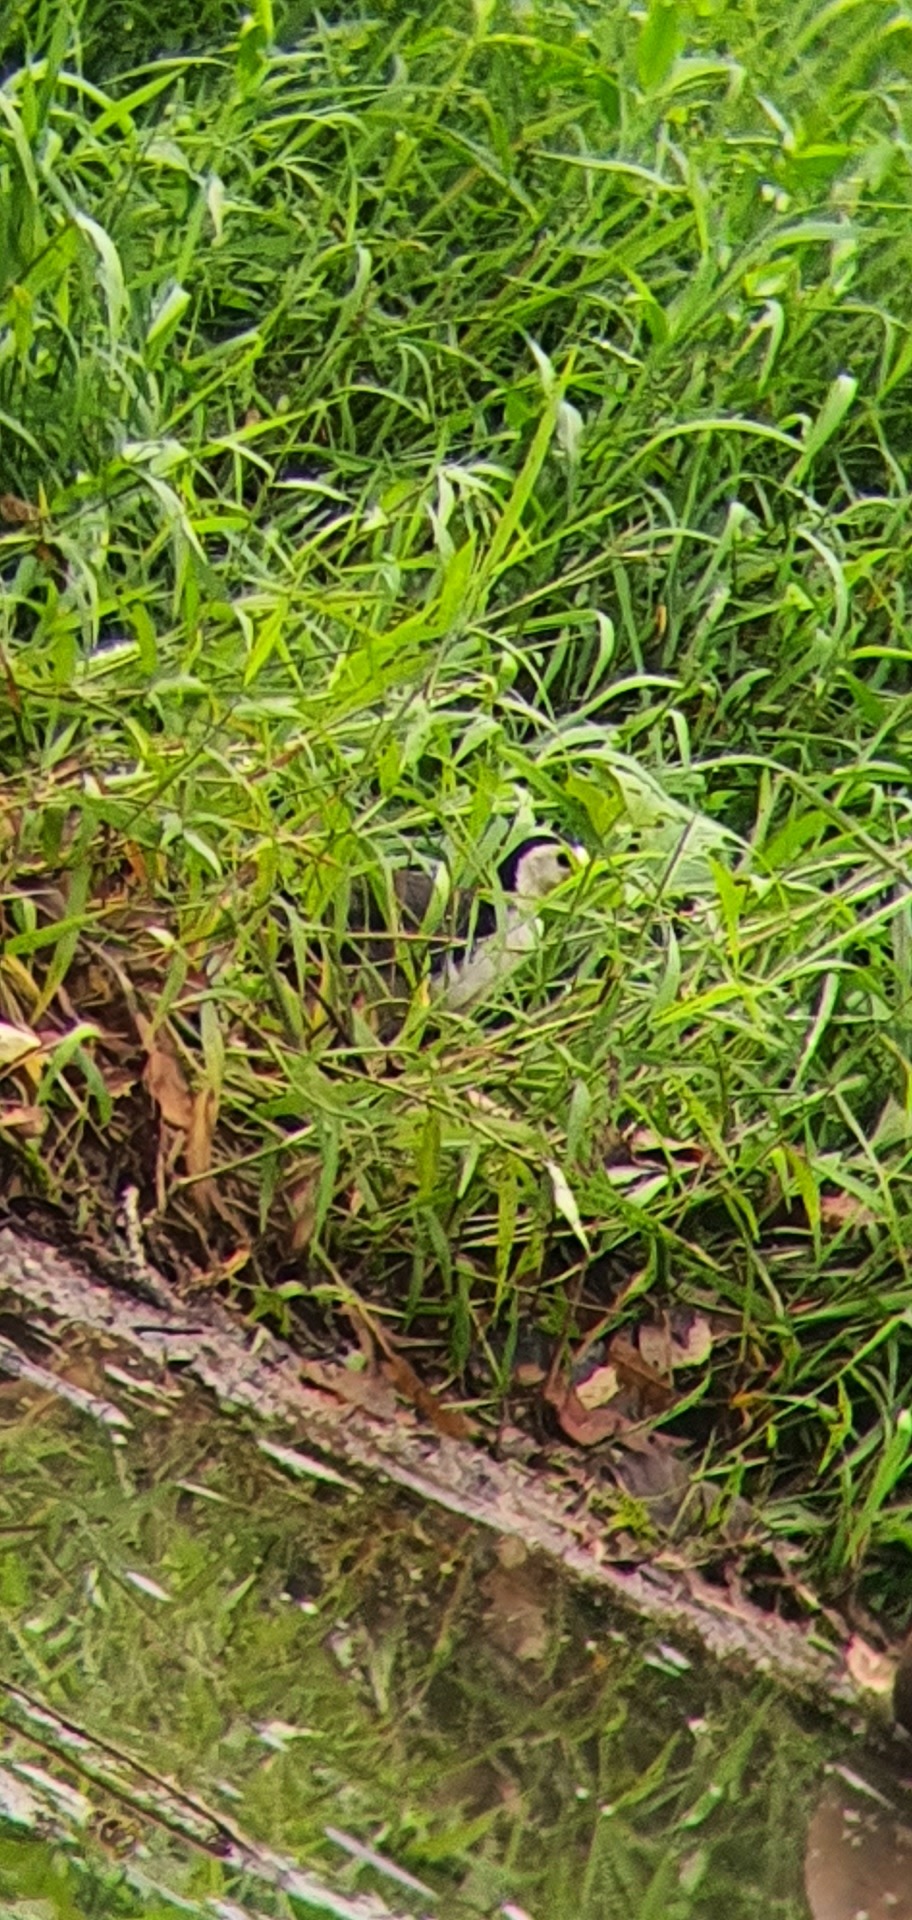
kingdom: Animalia
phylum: Chordata
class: Aves
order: Gruiformes
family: Rallidae
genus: Amaurornis
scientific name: Amaurornis phoenicurus
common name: White-breasted waterhen
